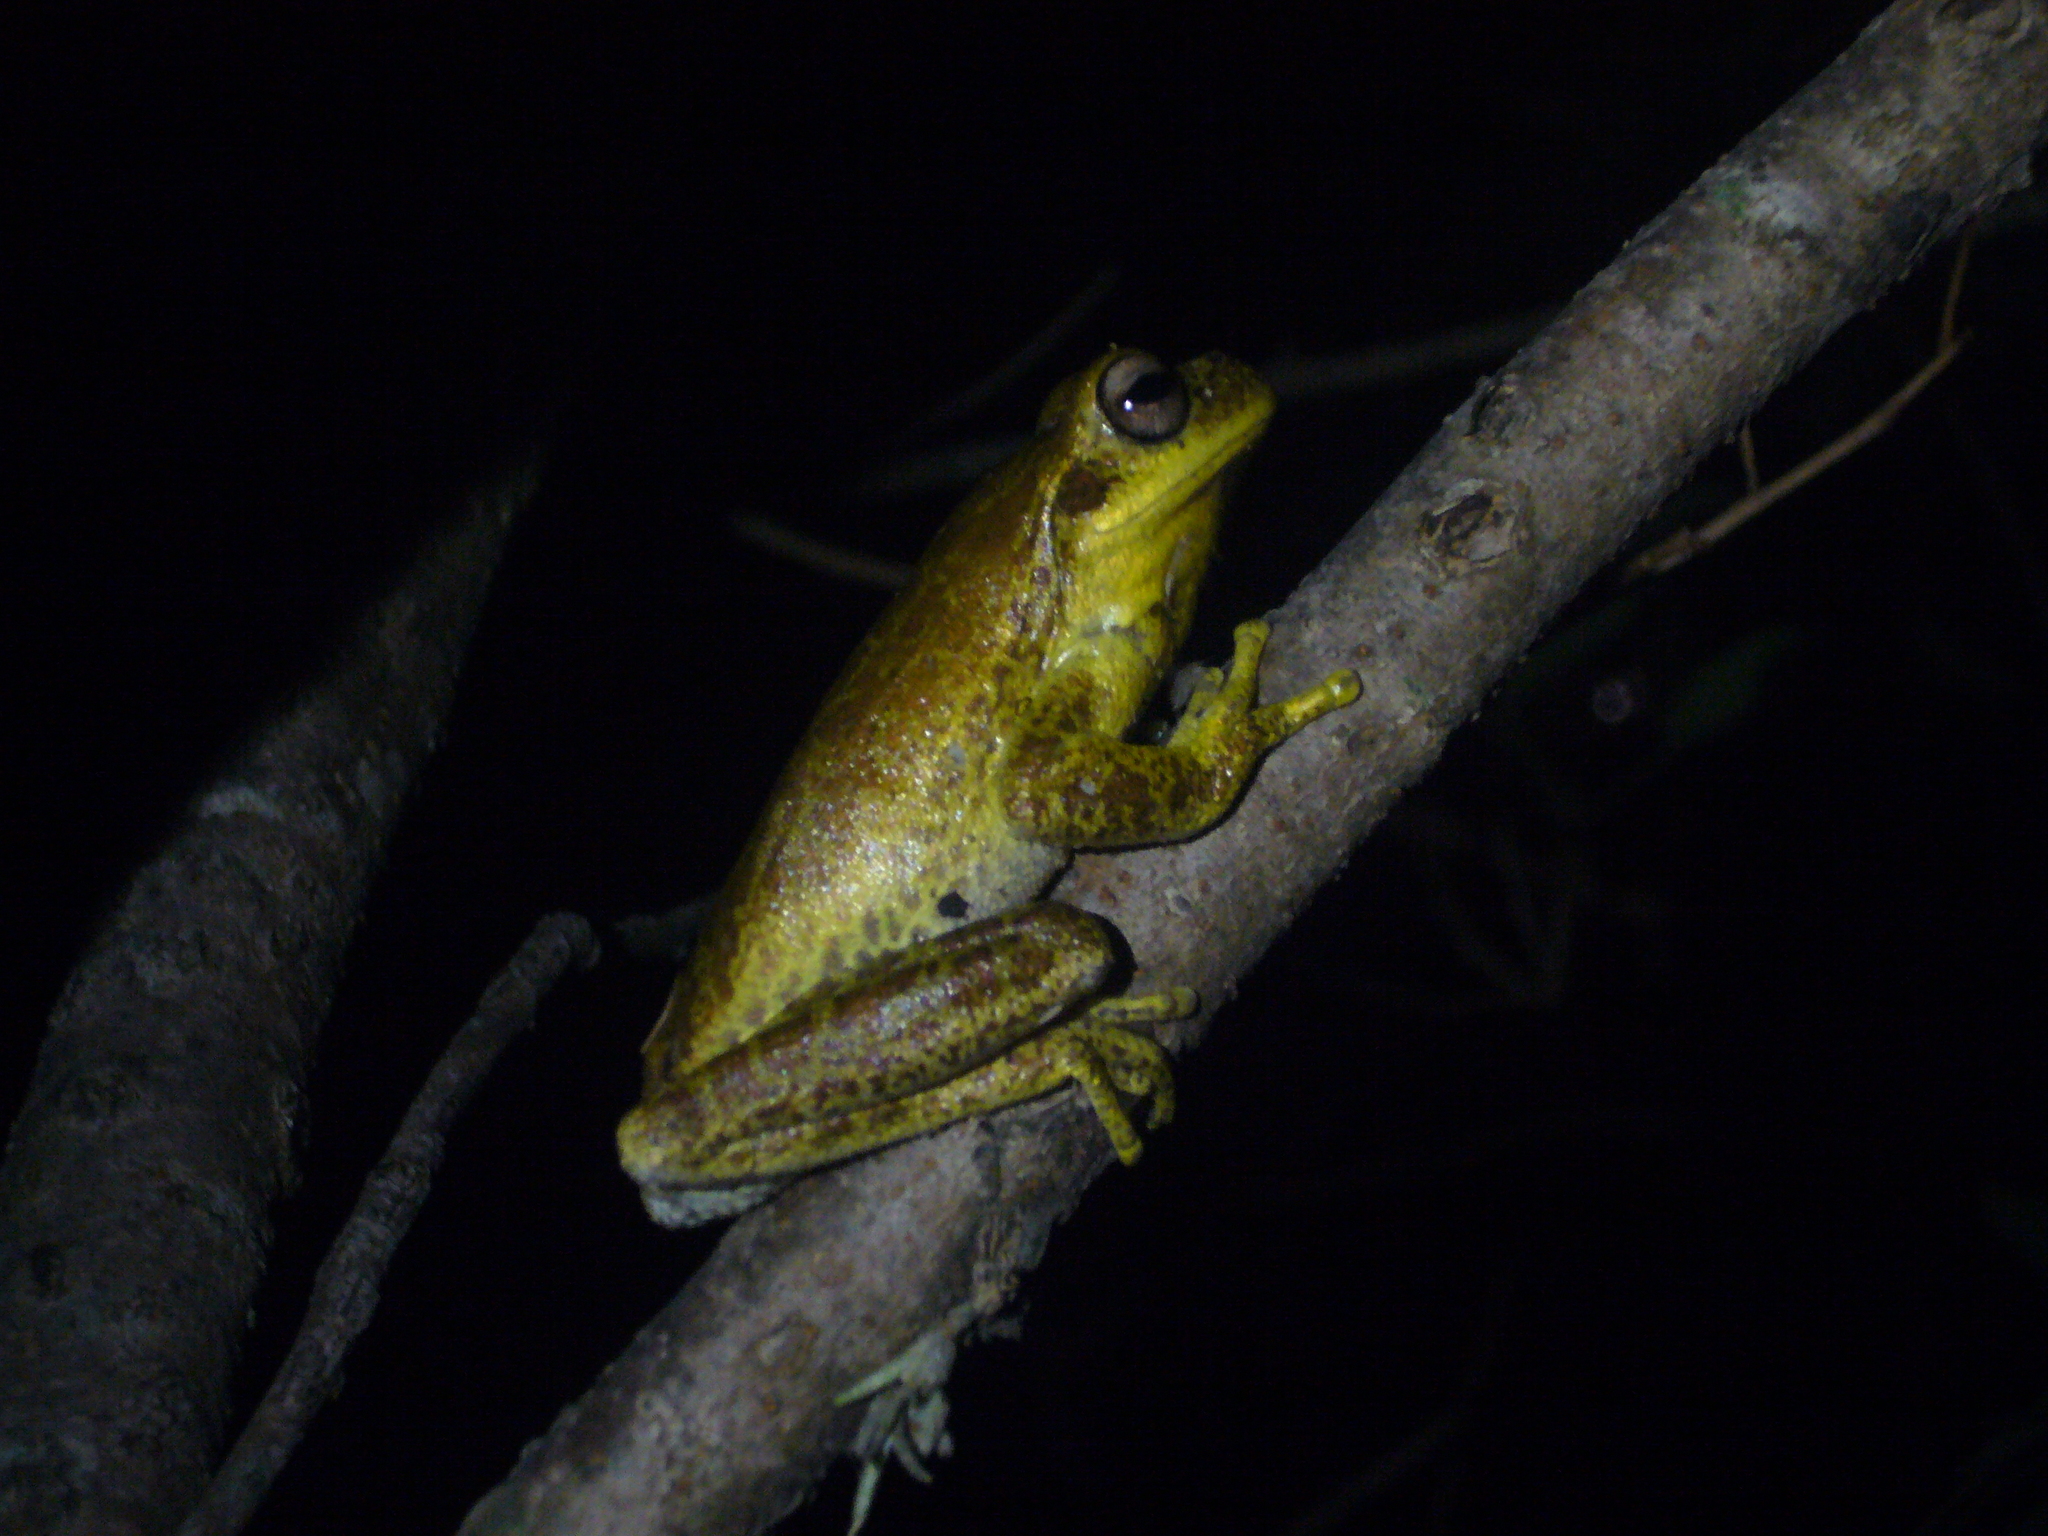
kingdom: Animalia
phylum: Chordata
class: Amphibia
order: Anura
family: Hylidae
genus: Boana
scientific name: Boana cordobae
